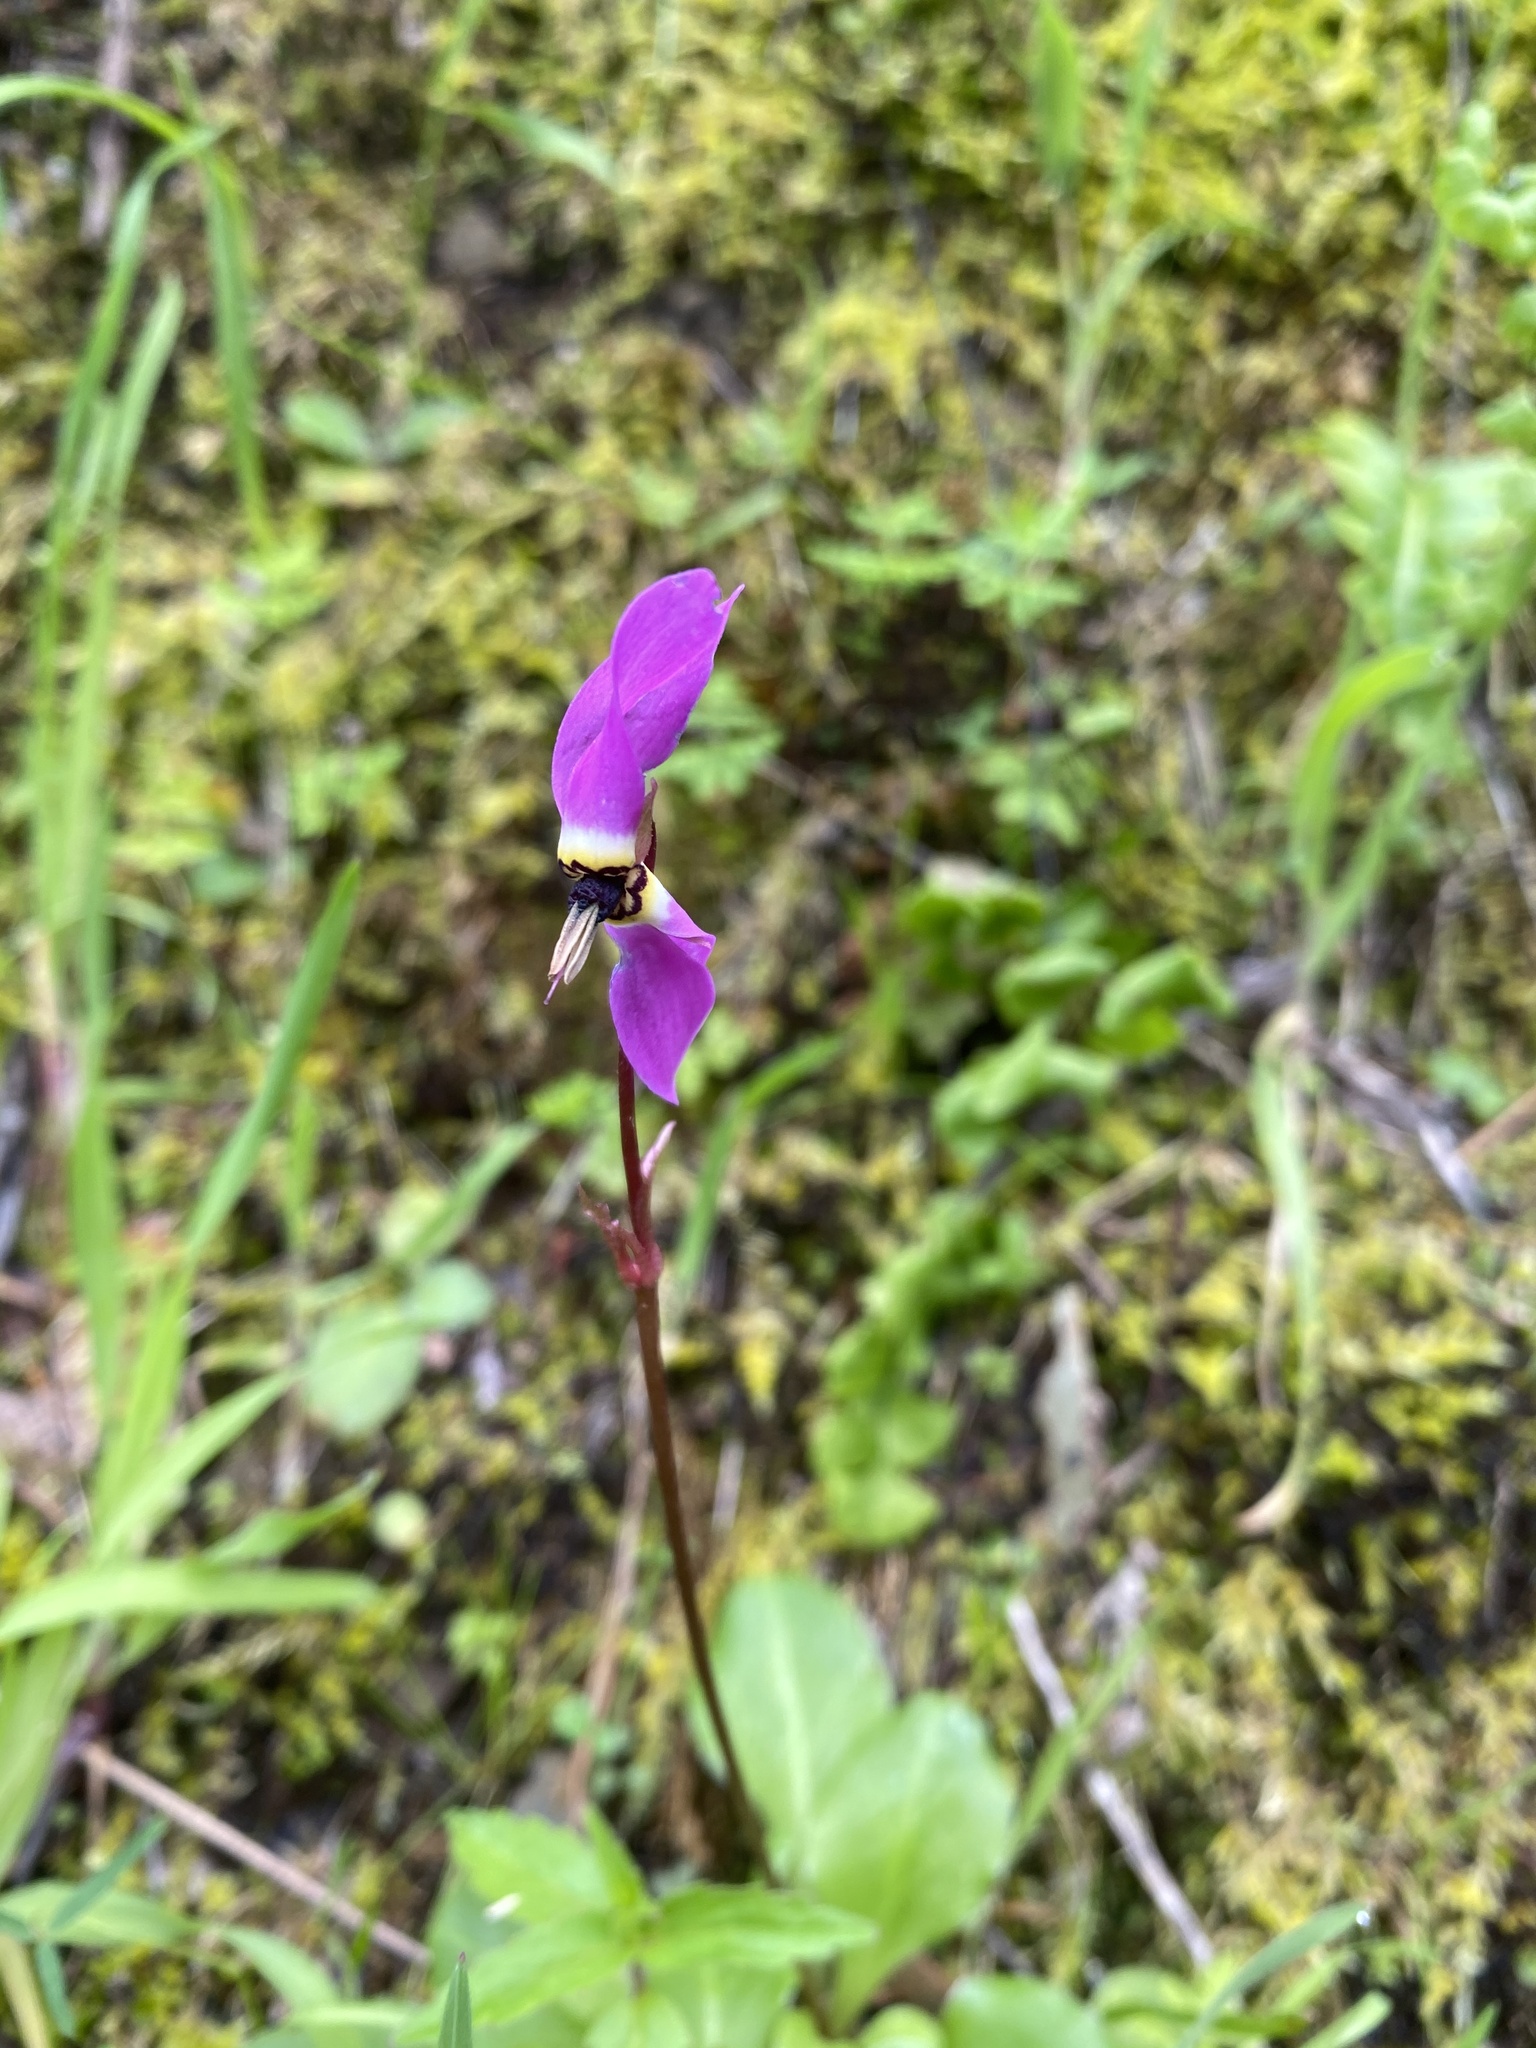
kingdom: Plantae
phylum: Tracheophyta
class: Magnoliopsida
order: Ericales
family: Primulaceae
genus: Dodecatheon
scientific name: Dodecatheon hendersonii
